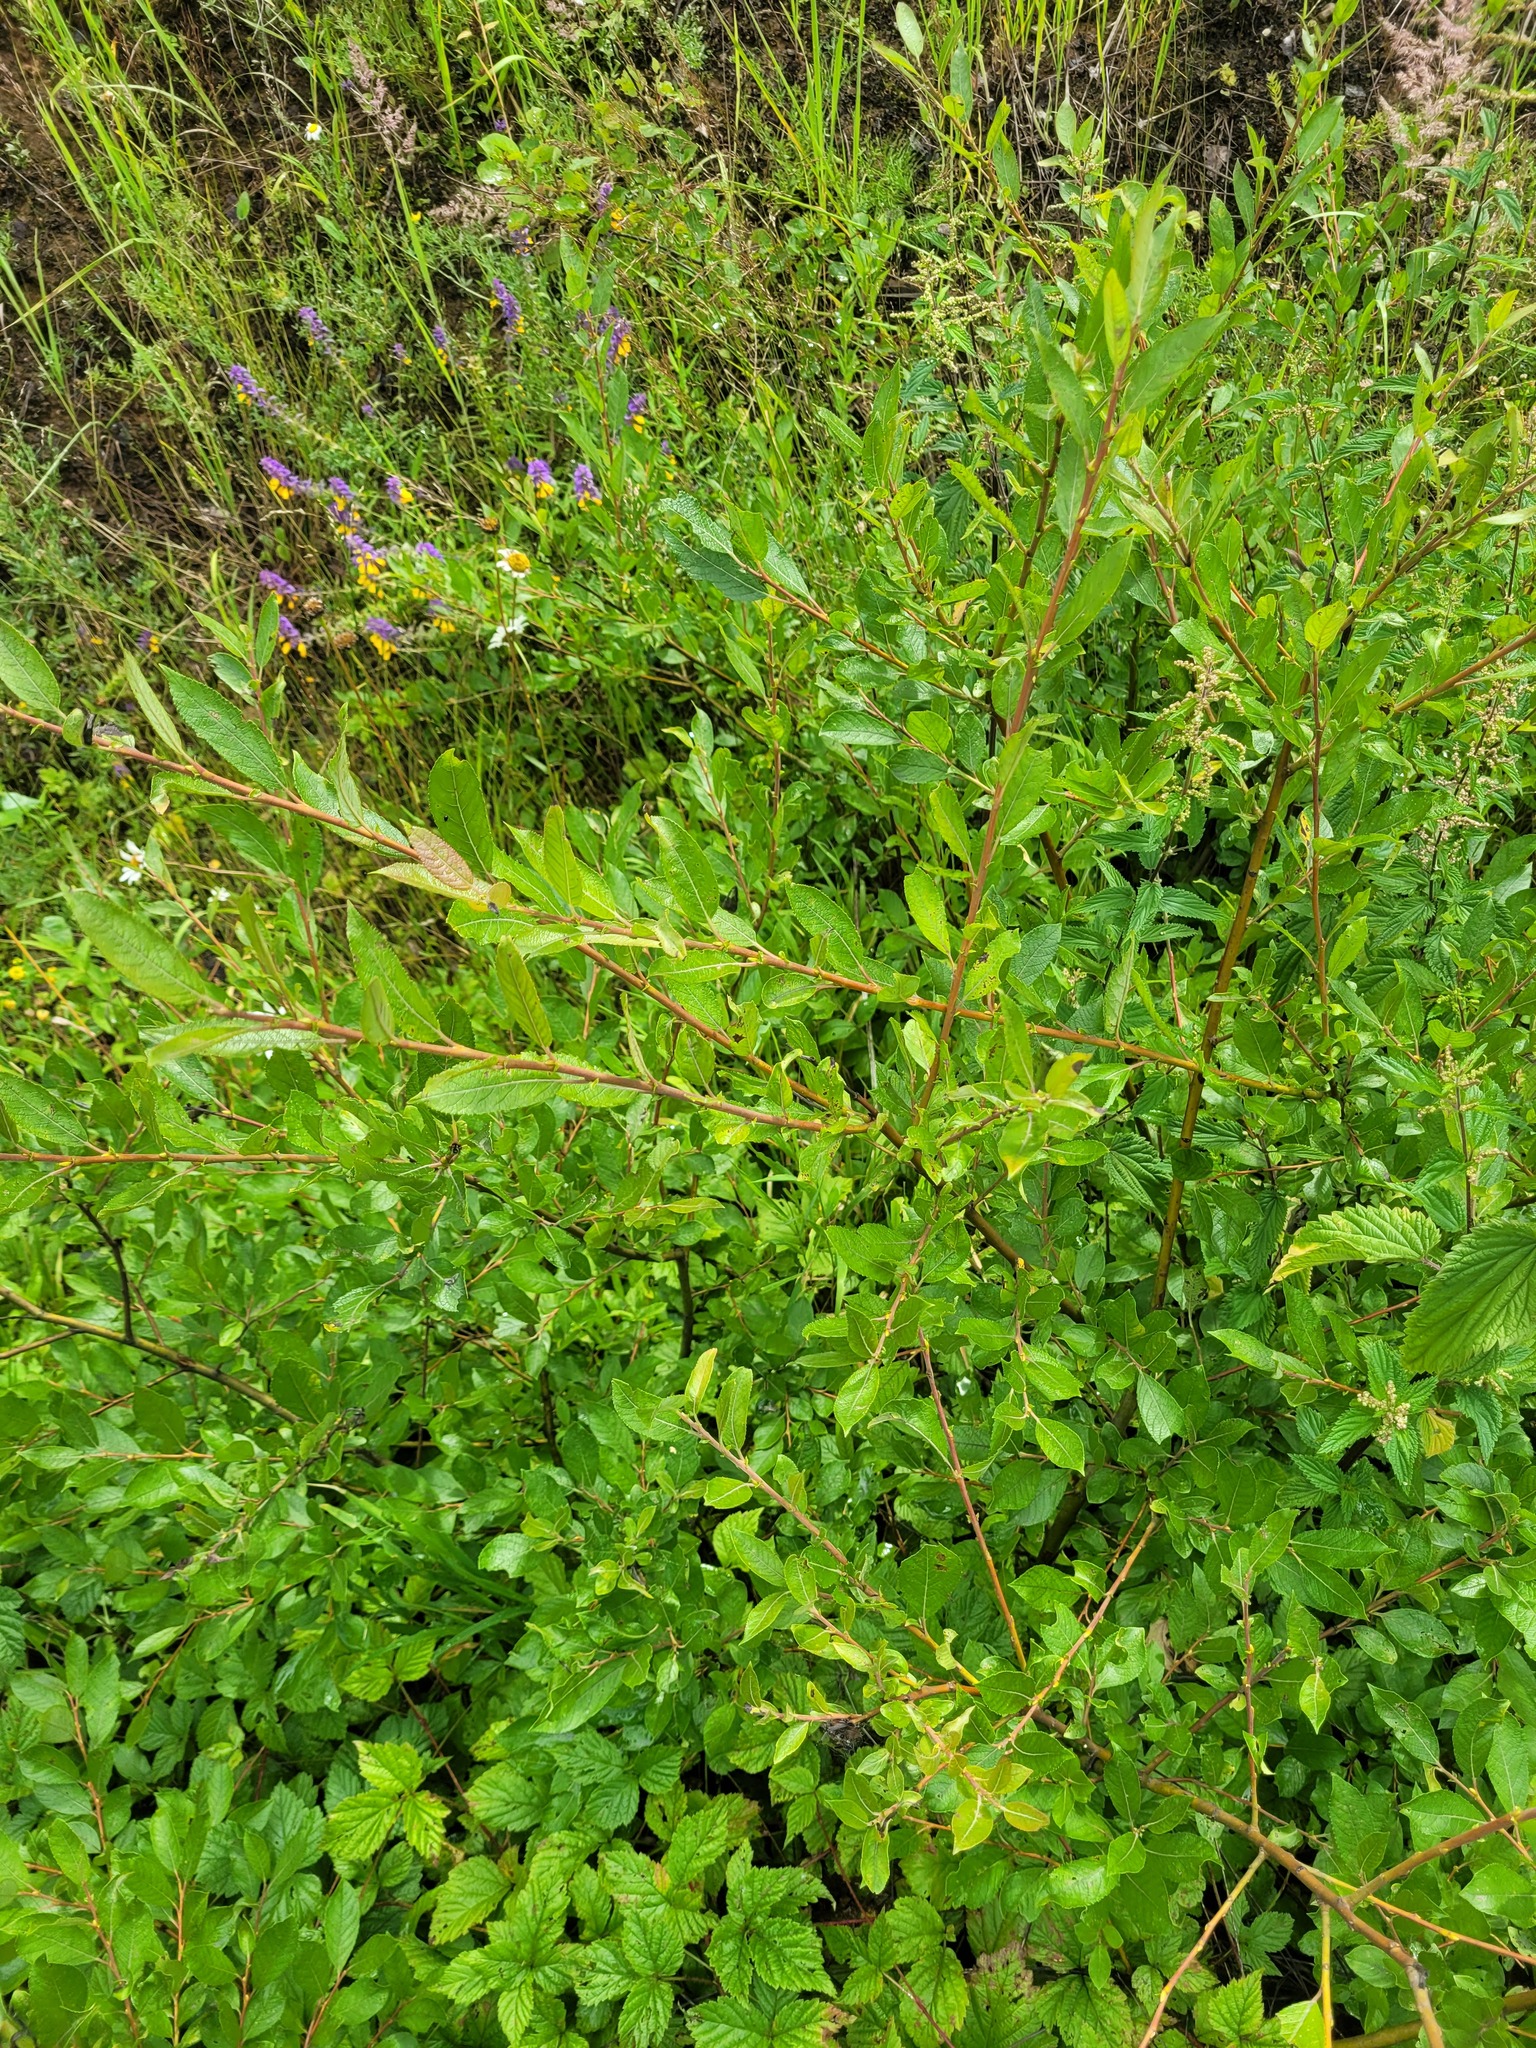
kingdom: Plantae
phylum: Tracheophyta
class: Magnoliopsida
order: Malpighiales
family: Salicaceae
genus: Salix
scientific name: Salix myrsinifolia
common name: Dark-leaved willow
